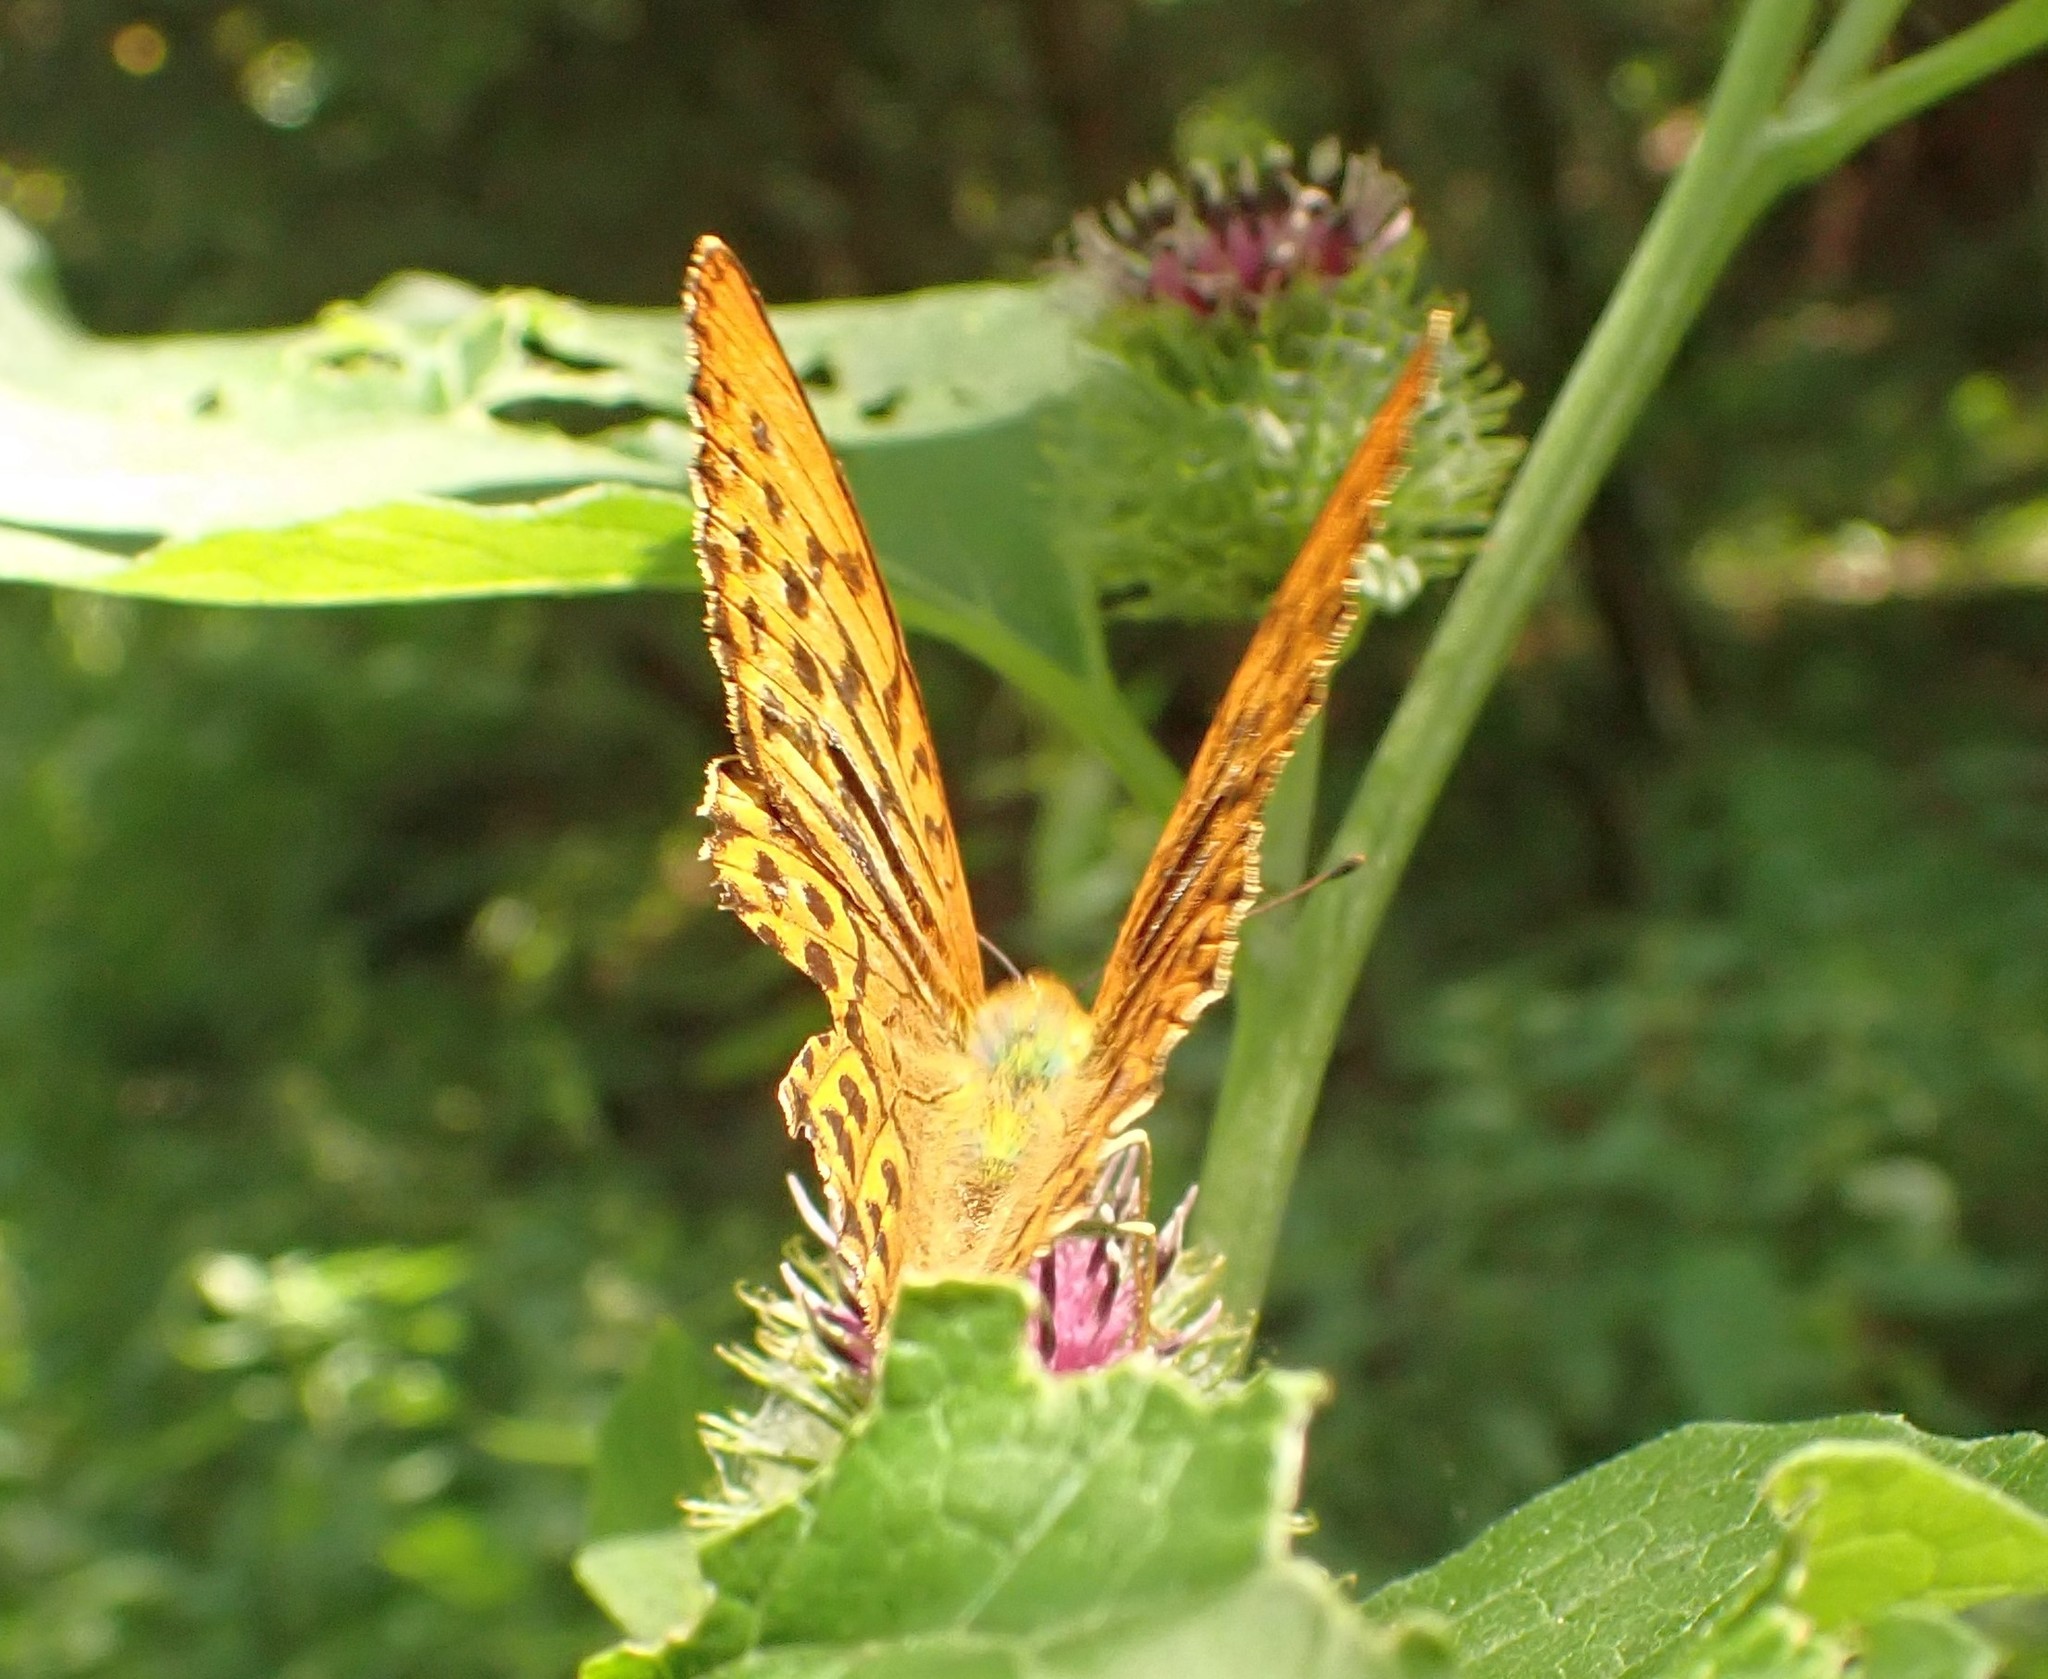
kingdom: Animalia
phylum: Arthropoda
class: Insecta
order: Lepidoptera
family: Nymphalidae
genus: Argynnis
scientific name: Argynnis paphia
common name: Silver-washed fritillary
